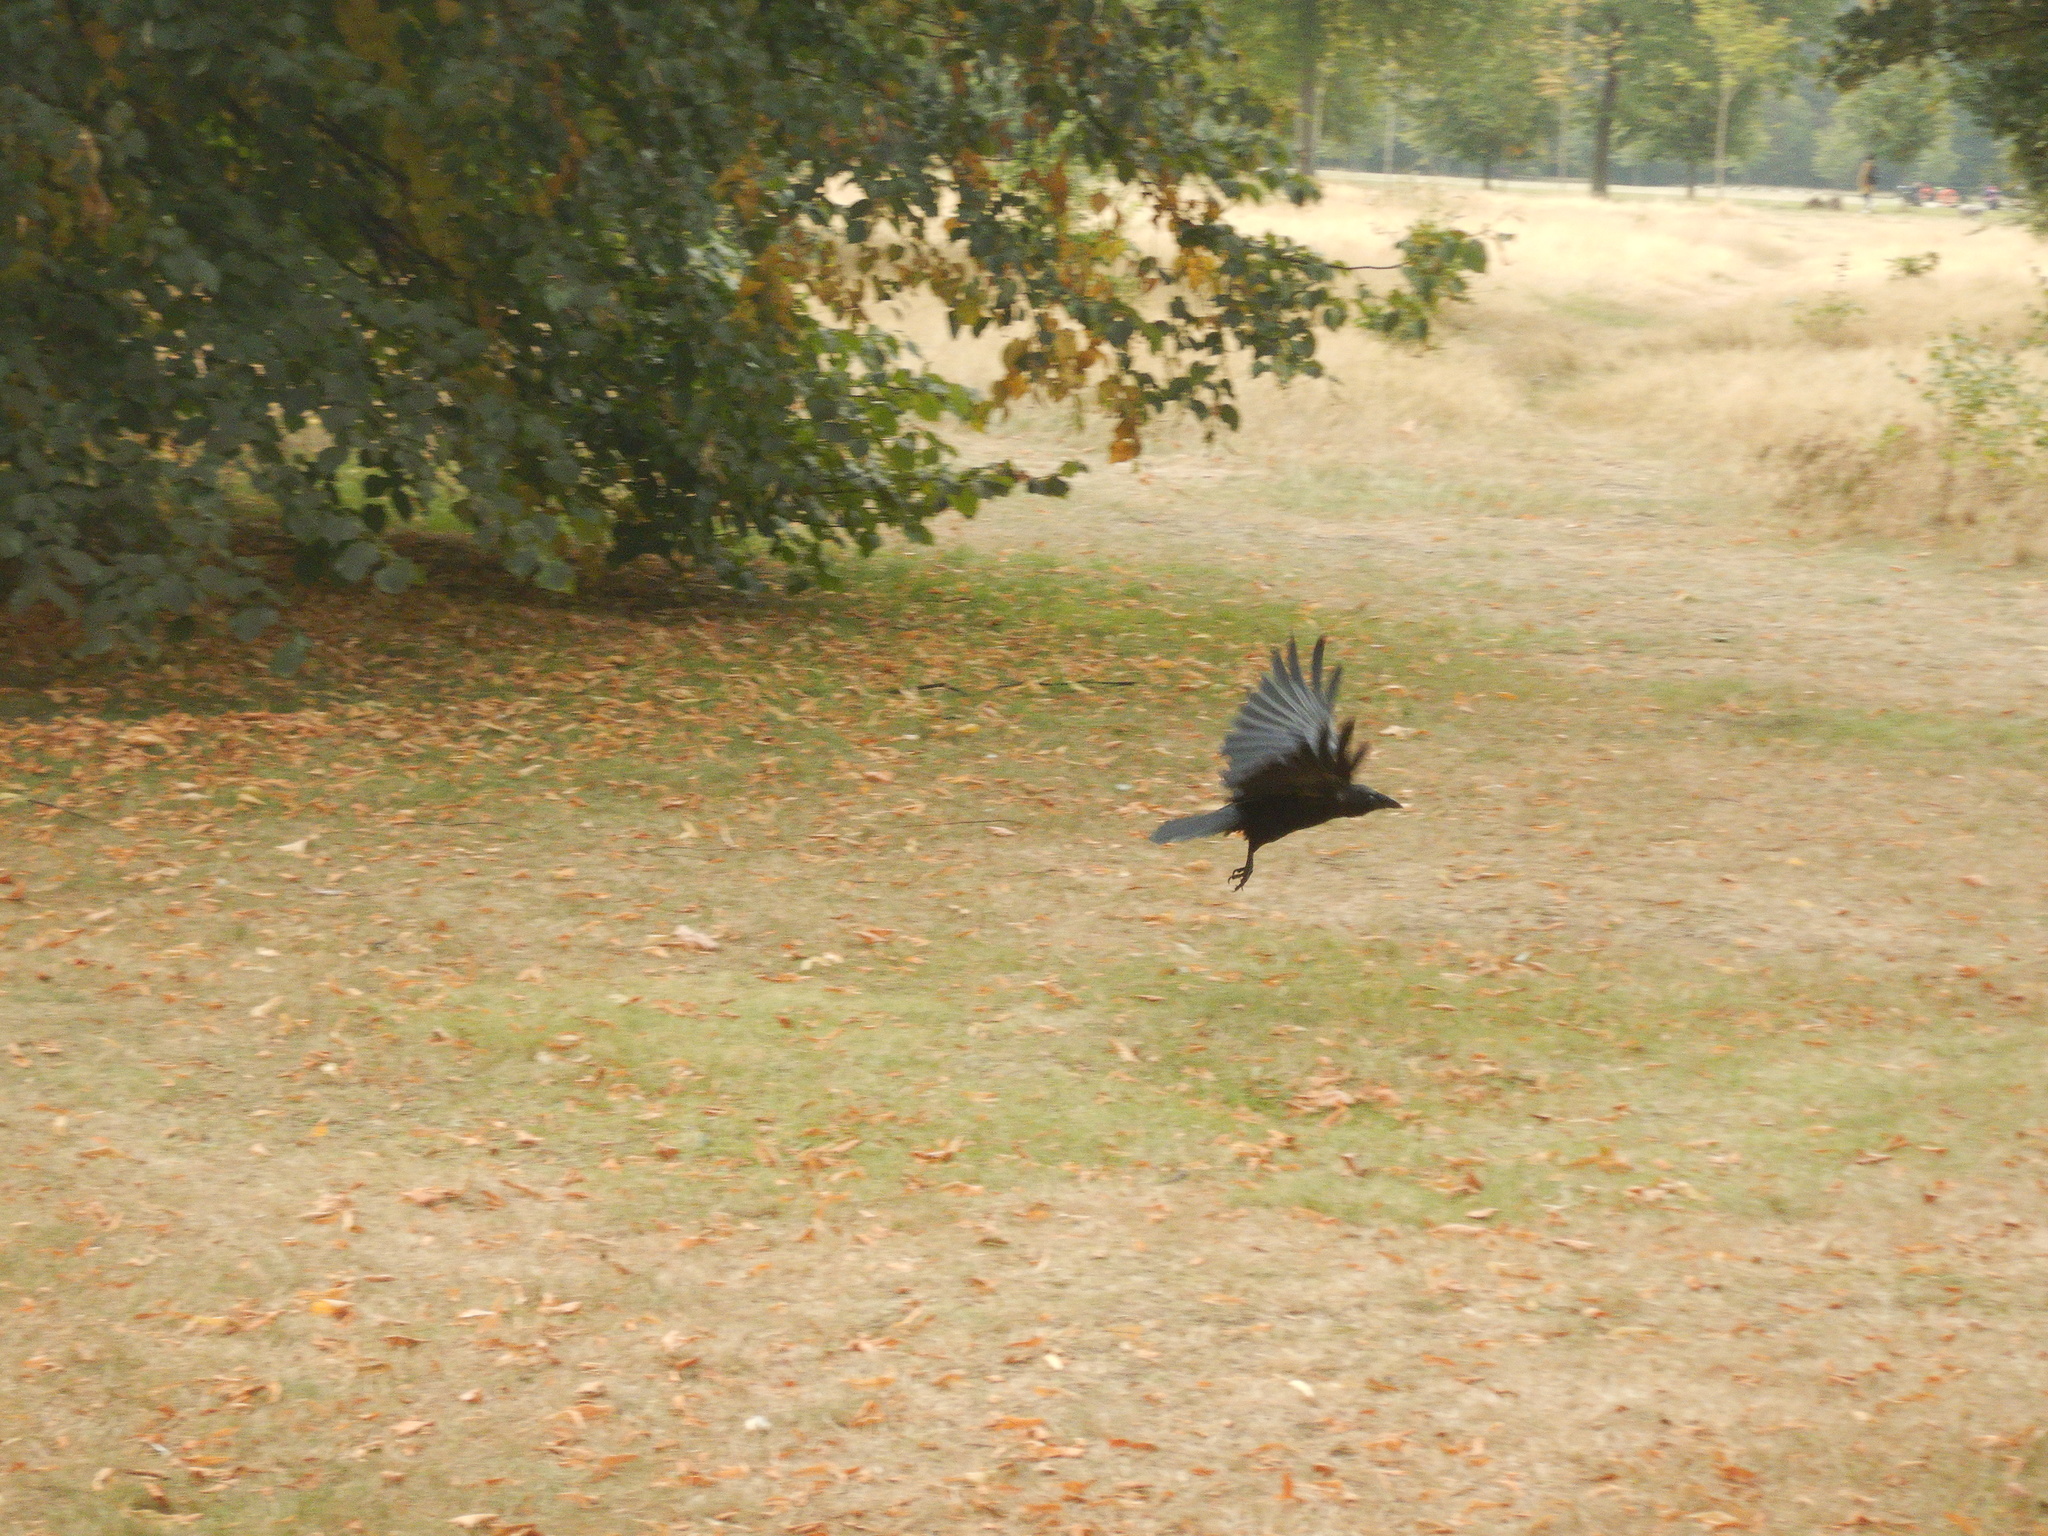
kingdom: Animalia
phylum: Chordata
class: Aves
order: Passeriformes
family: Corvidae
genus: Corvus
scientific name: Corvus corone
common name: Carrion crow
